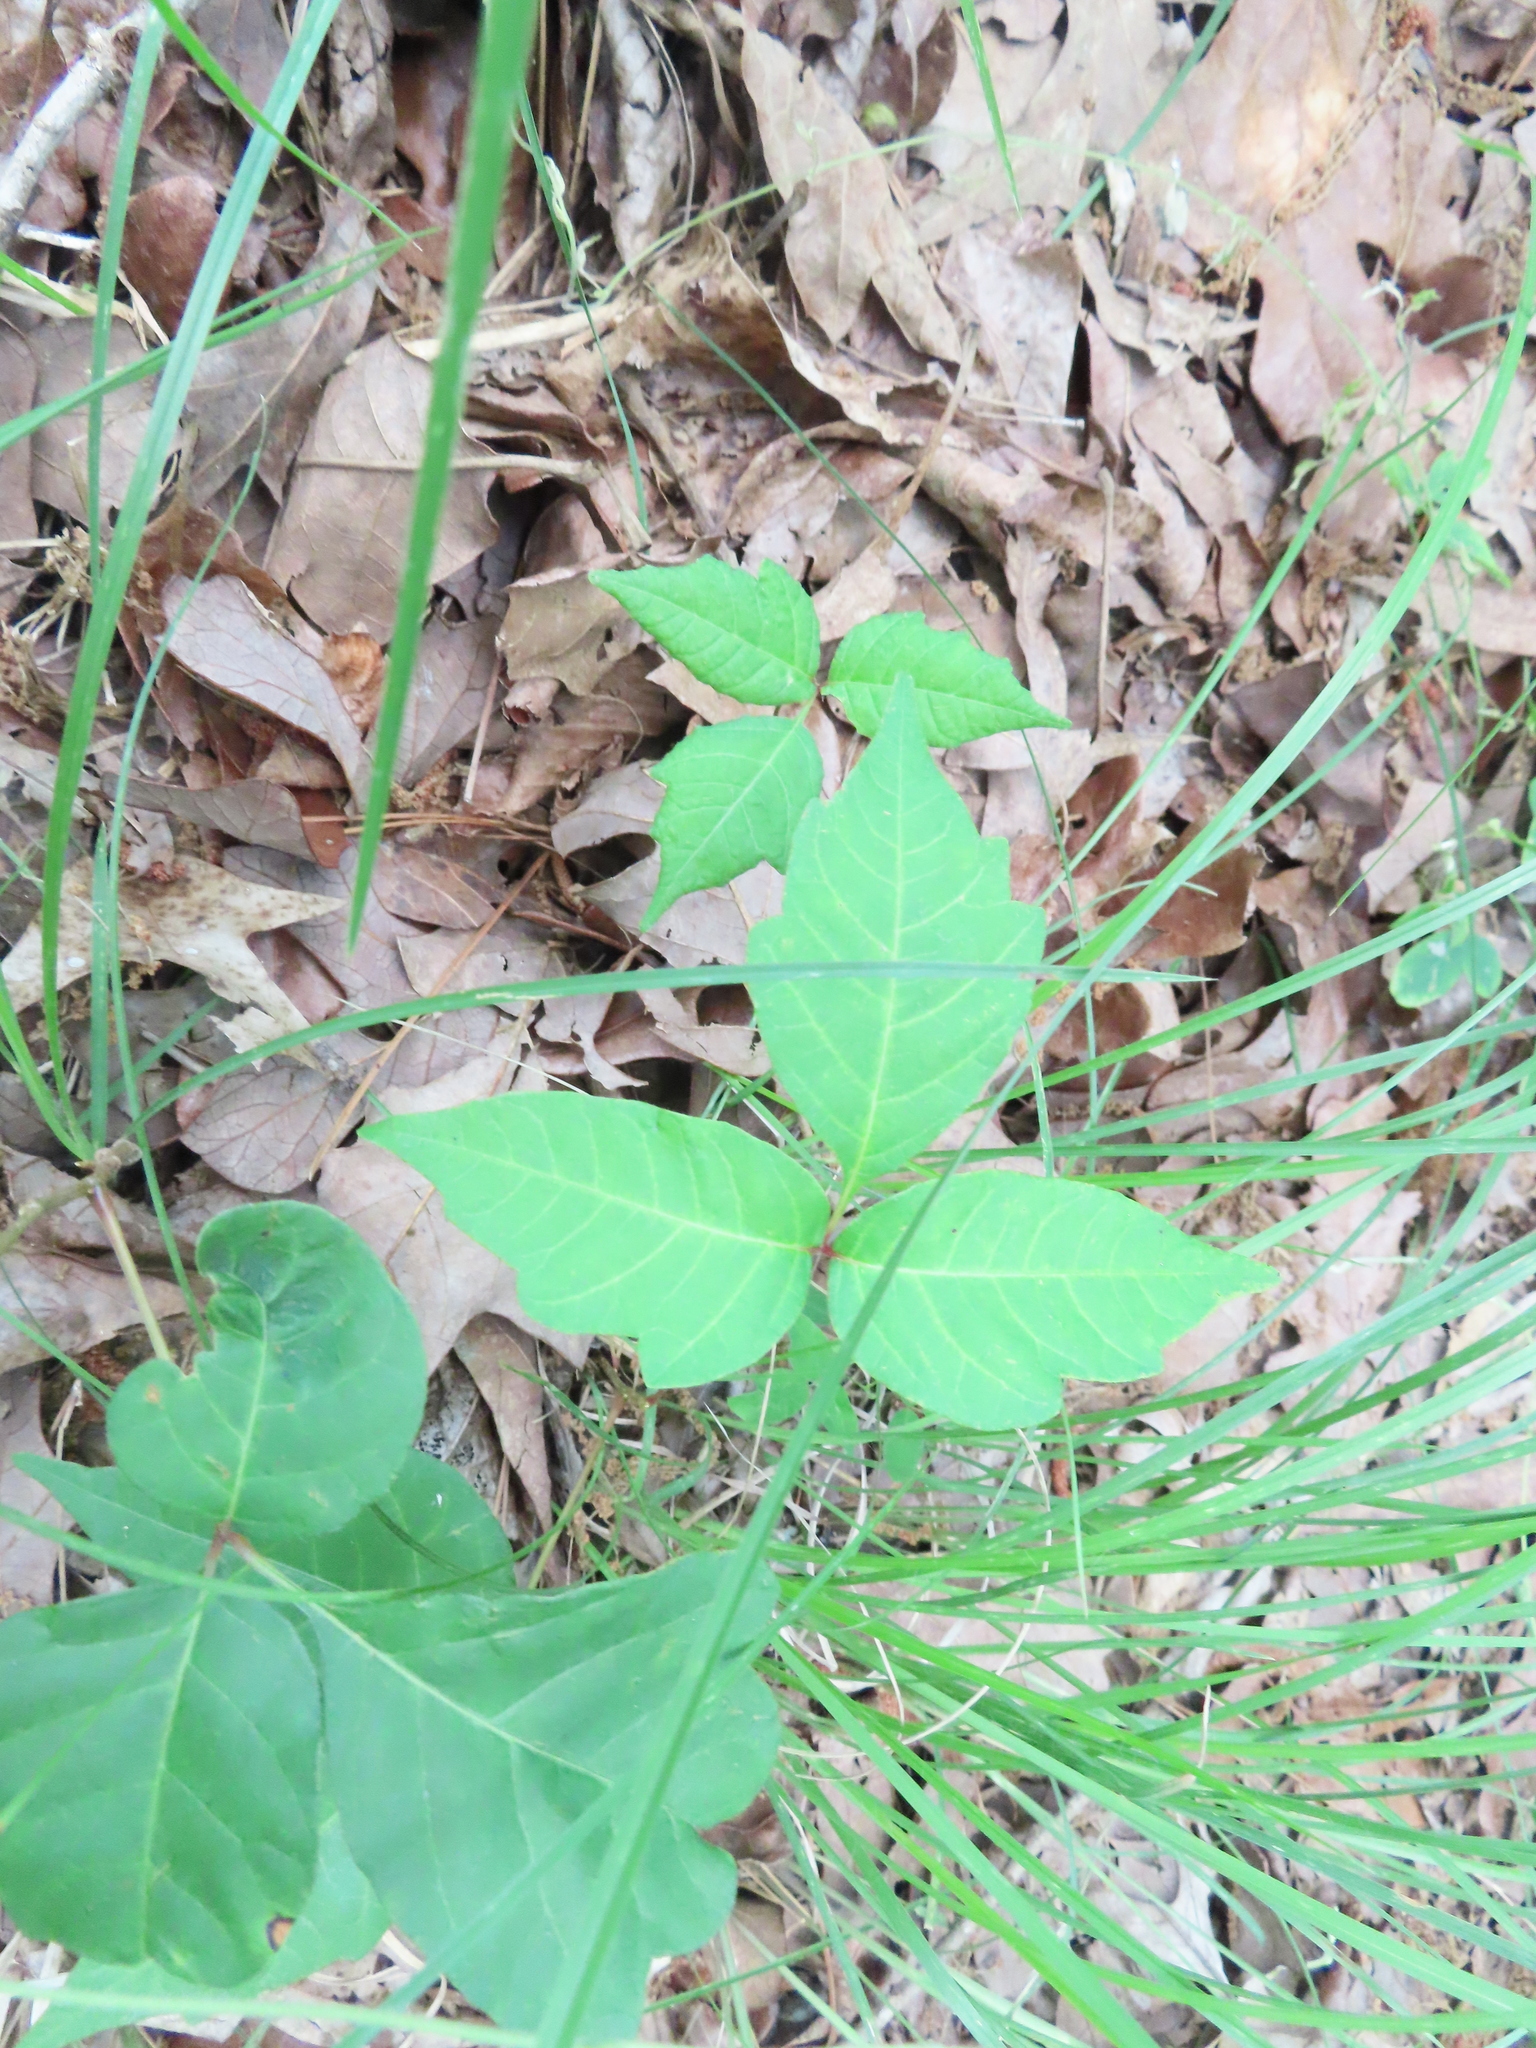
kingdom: Plantae
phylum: Tracheophyta
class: Magnoliopsida
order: Sapindales
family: Anacardiaceae
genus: Toxicodendron
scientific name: Toxicodendron radicans
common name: Poison ivy
